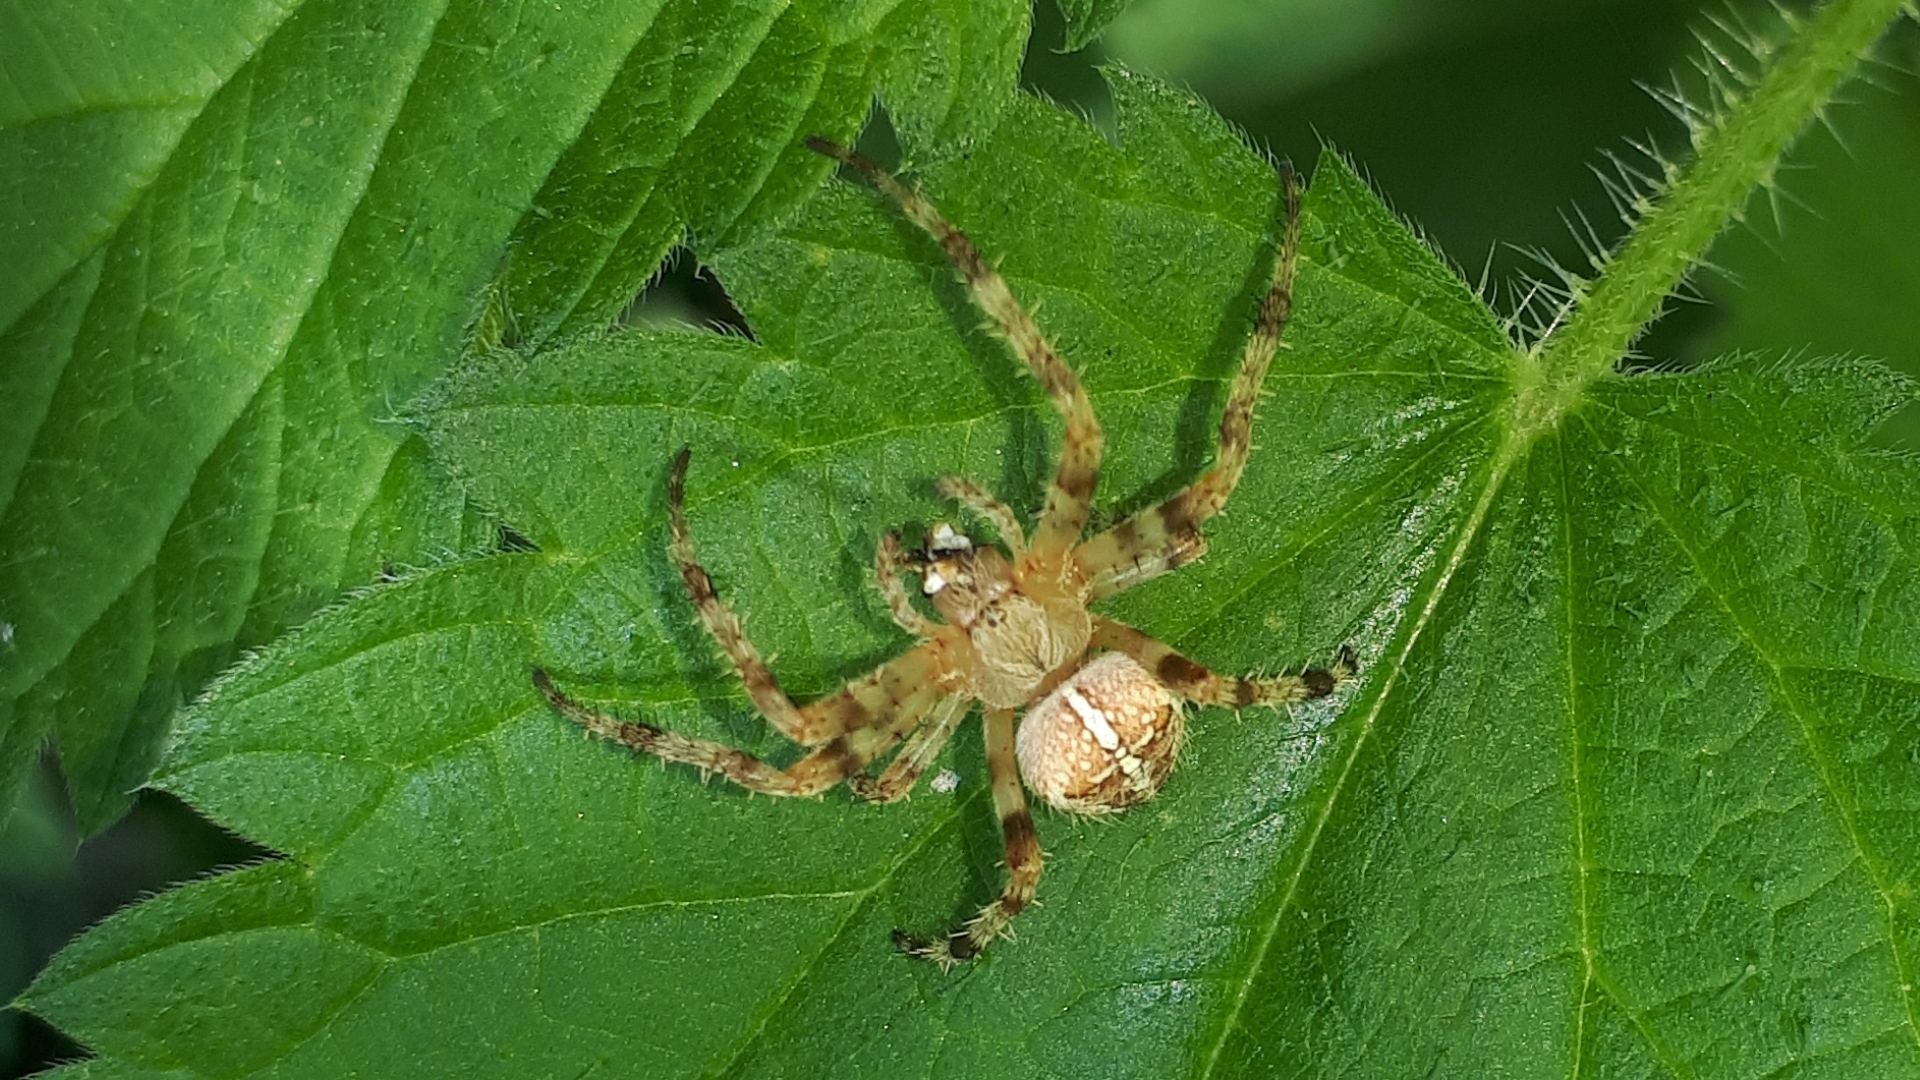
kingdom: Animalia
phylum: Arthropoda
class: Arachnida
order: Araneae
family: Araneidae
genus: Araneus
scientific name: Araneus diadematus
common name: Cross orbweaver
